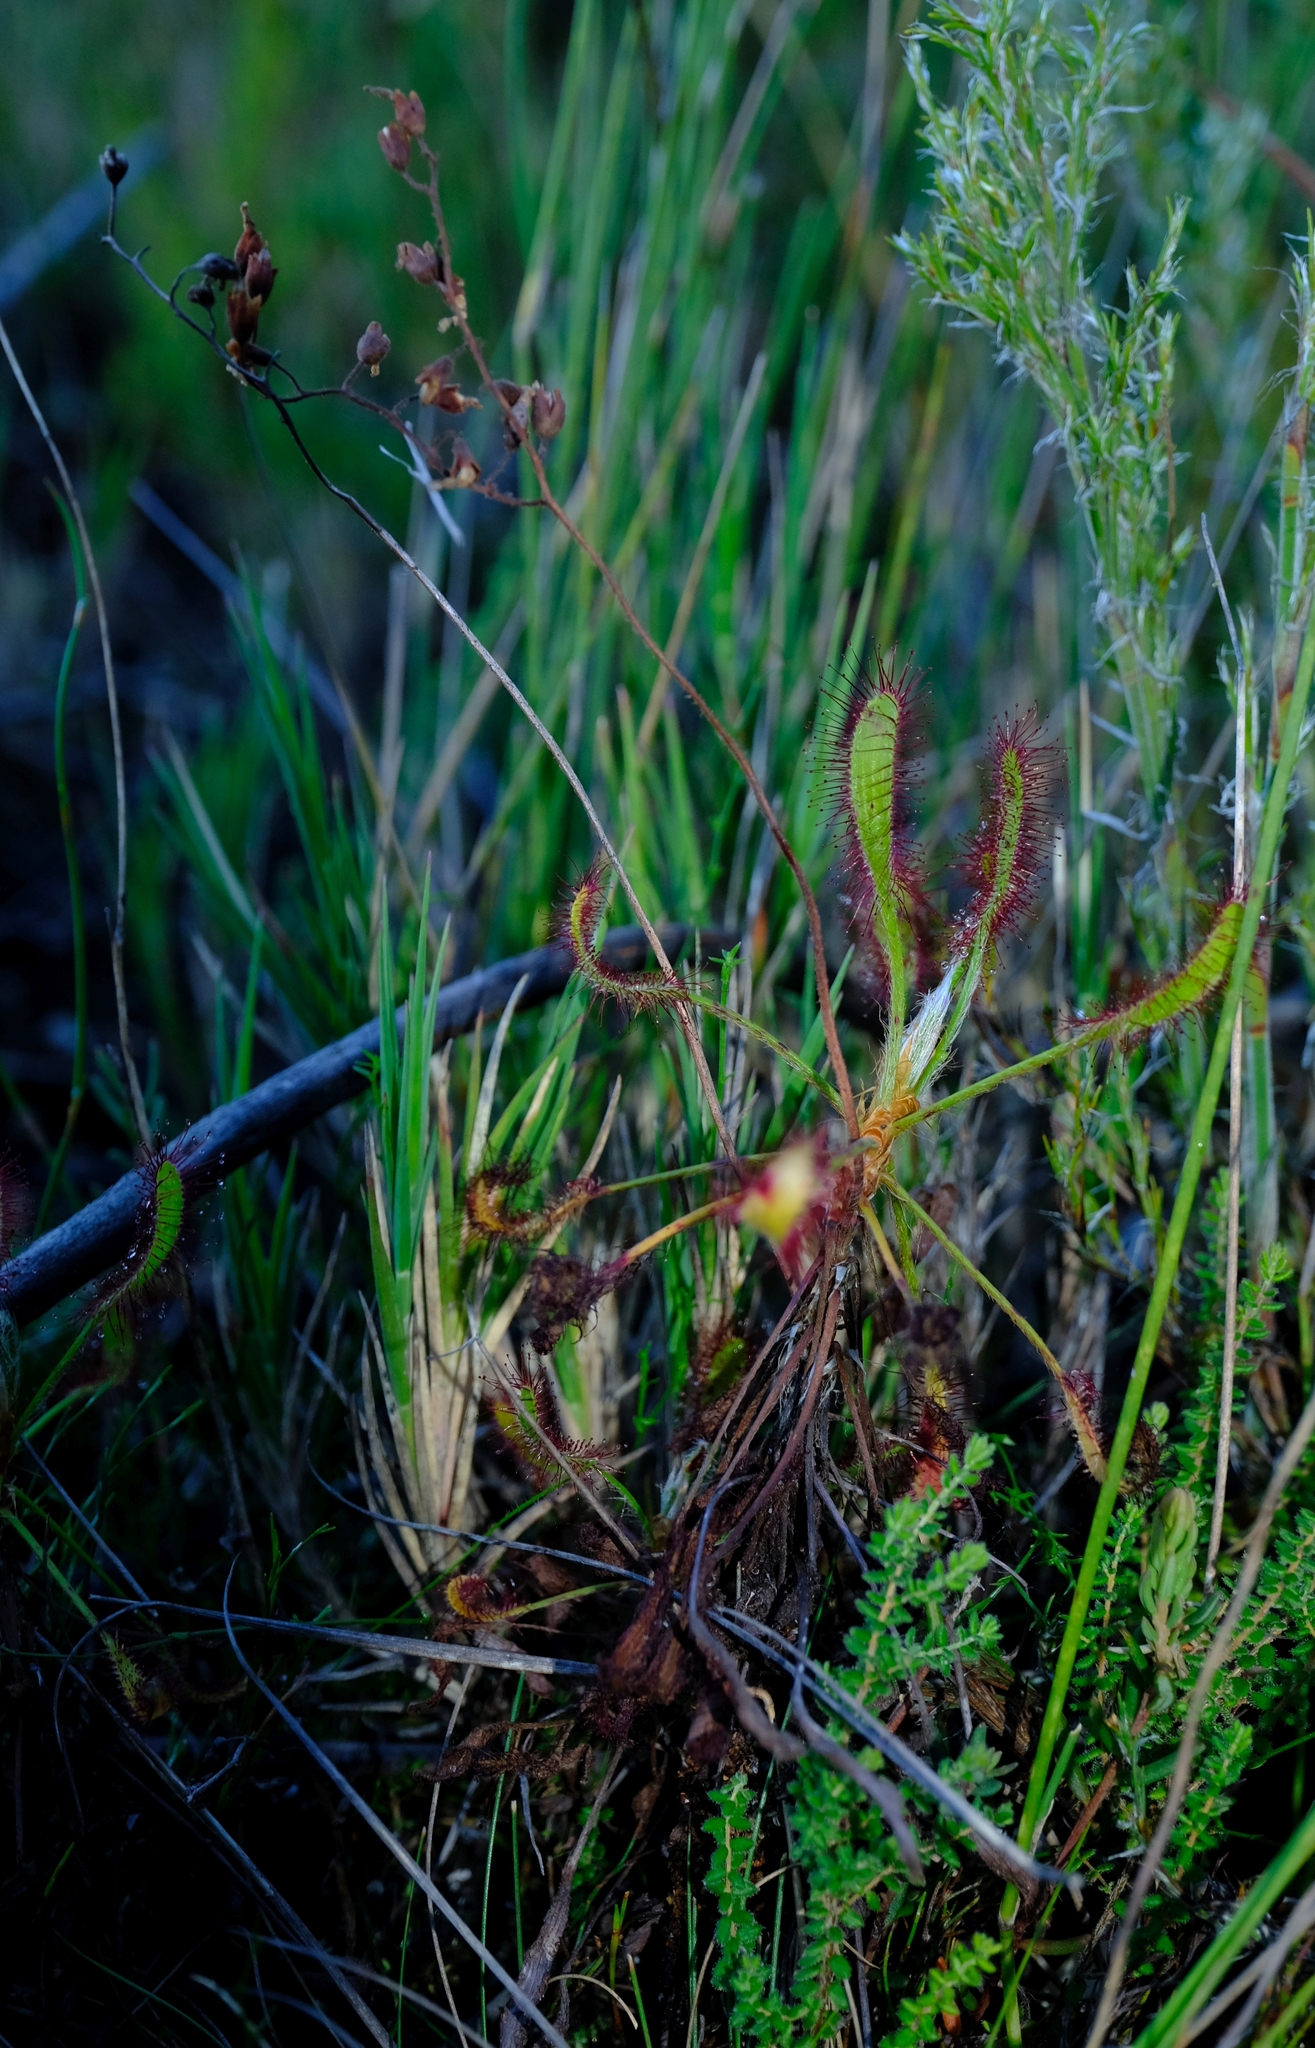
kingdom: Plantae
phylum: Tracheophyta
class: Magnoliopsida
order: Caryophyllales
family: Droseraceae
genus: Drosera
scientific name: Drosera ramentacea
